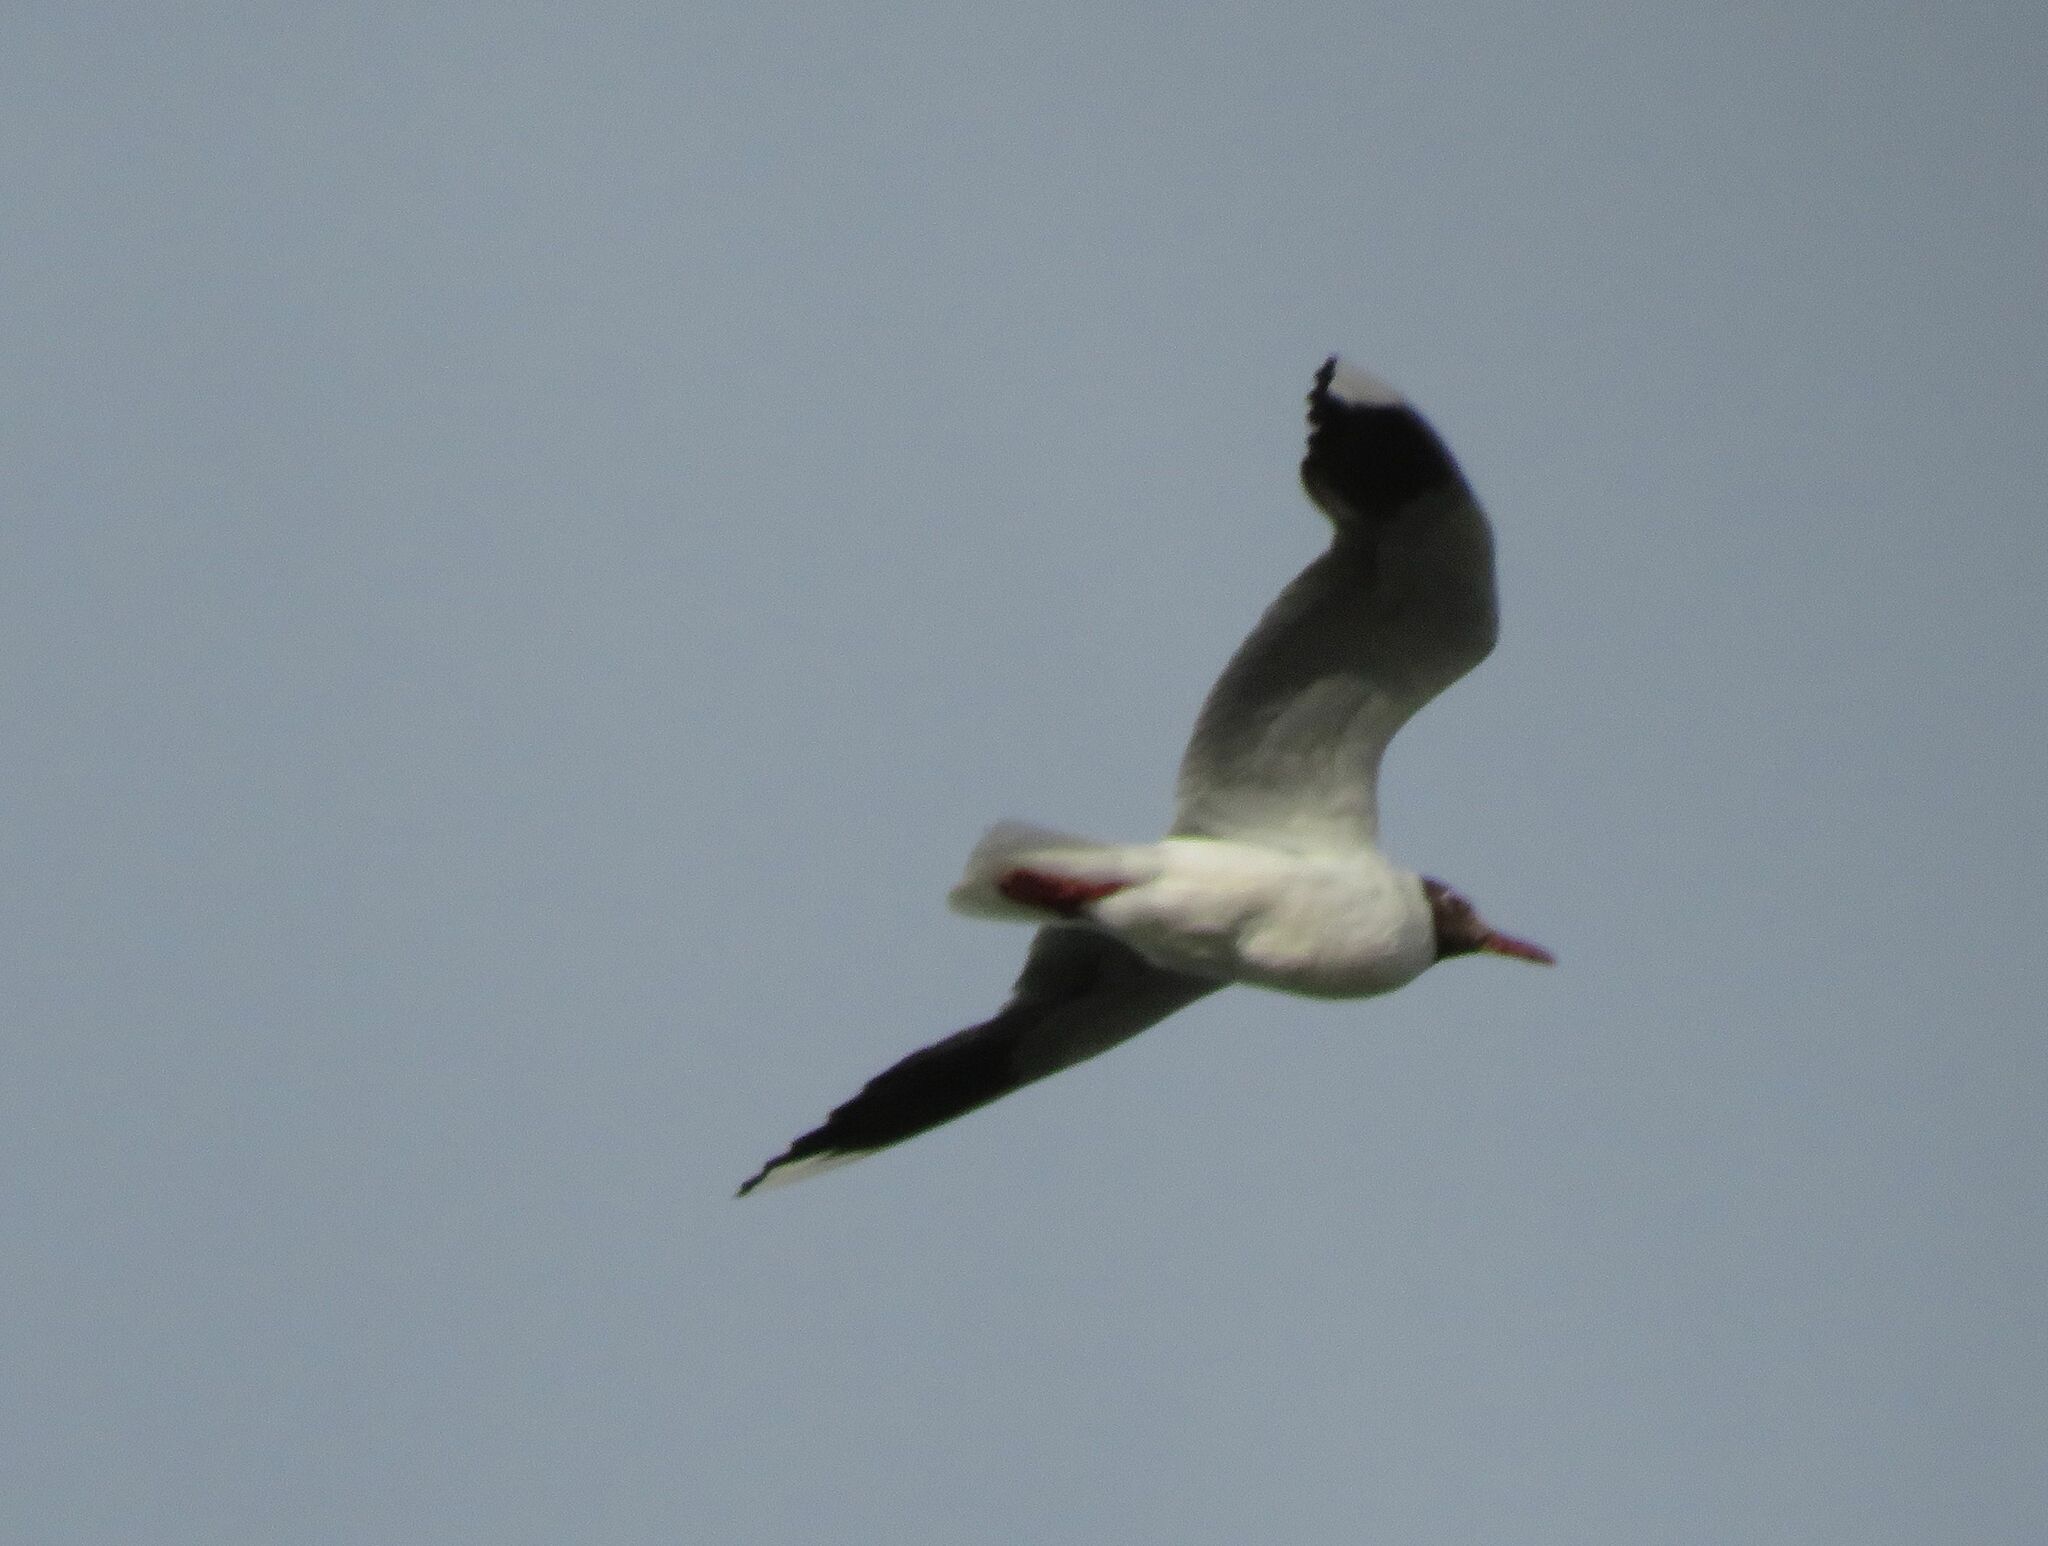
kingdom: Animalia
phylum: Chordata
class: Aves
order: Charadriiformes
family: Laridae
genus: Chroicocephalus
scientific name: Chroicocephalus maculipennis
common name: Brown-hooded gull
